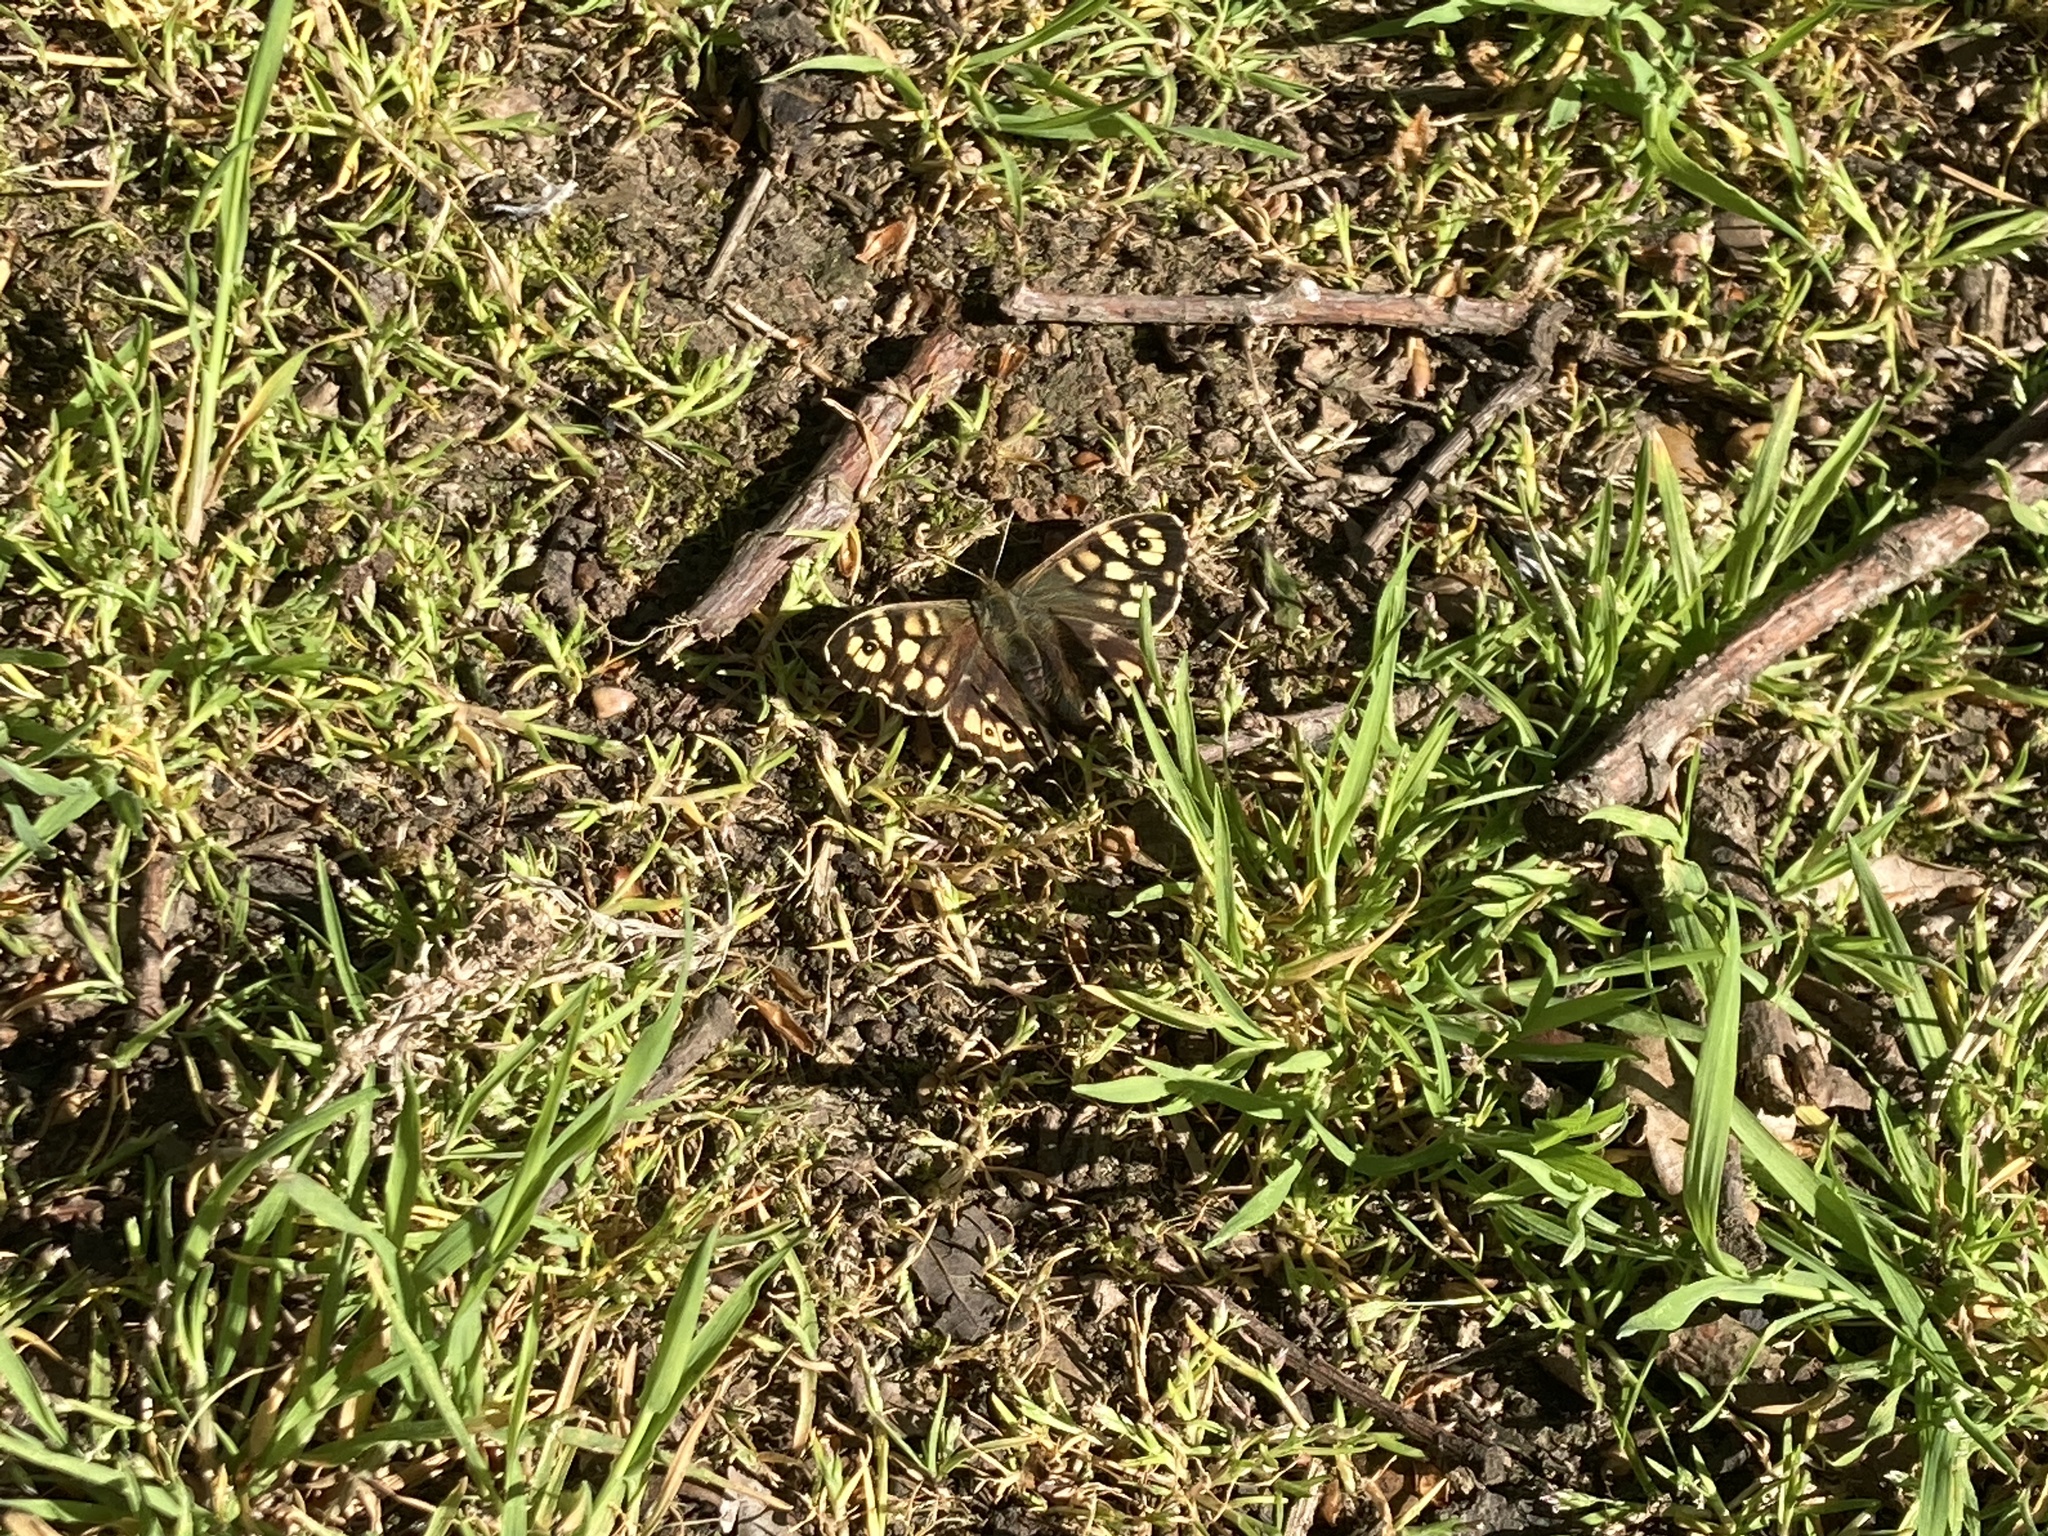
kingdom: Animalia
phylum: Arthropoda
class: Insecta
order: Lepidoptera
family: Nymphalidae
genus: Pararge
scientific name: Pararge aegeria
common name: Speckled wood
